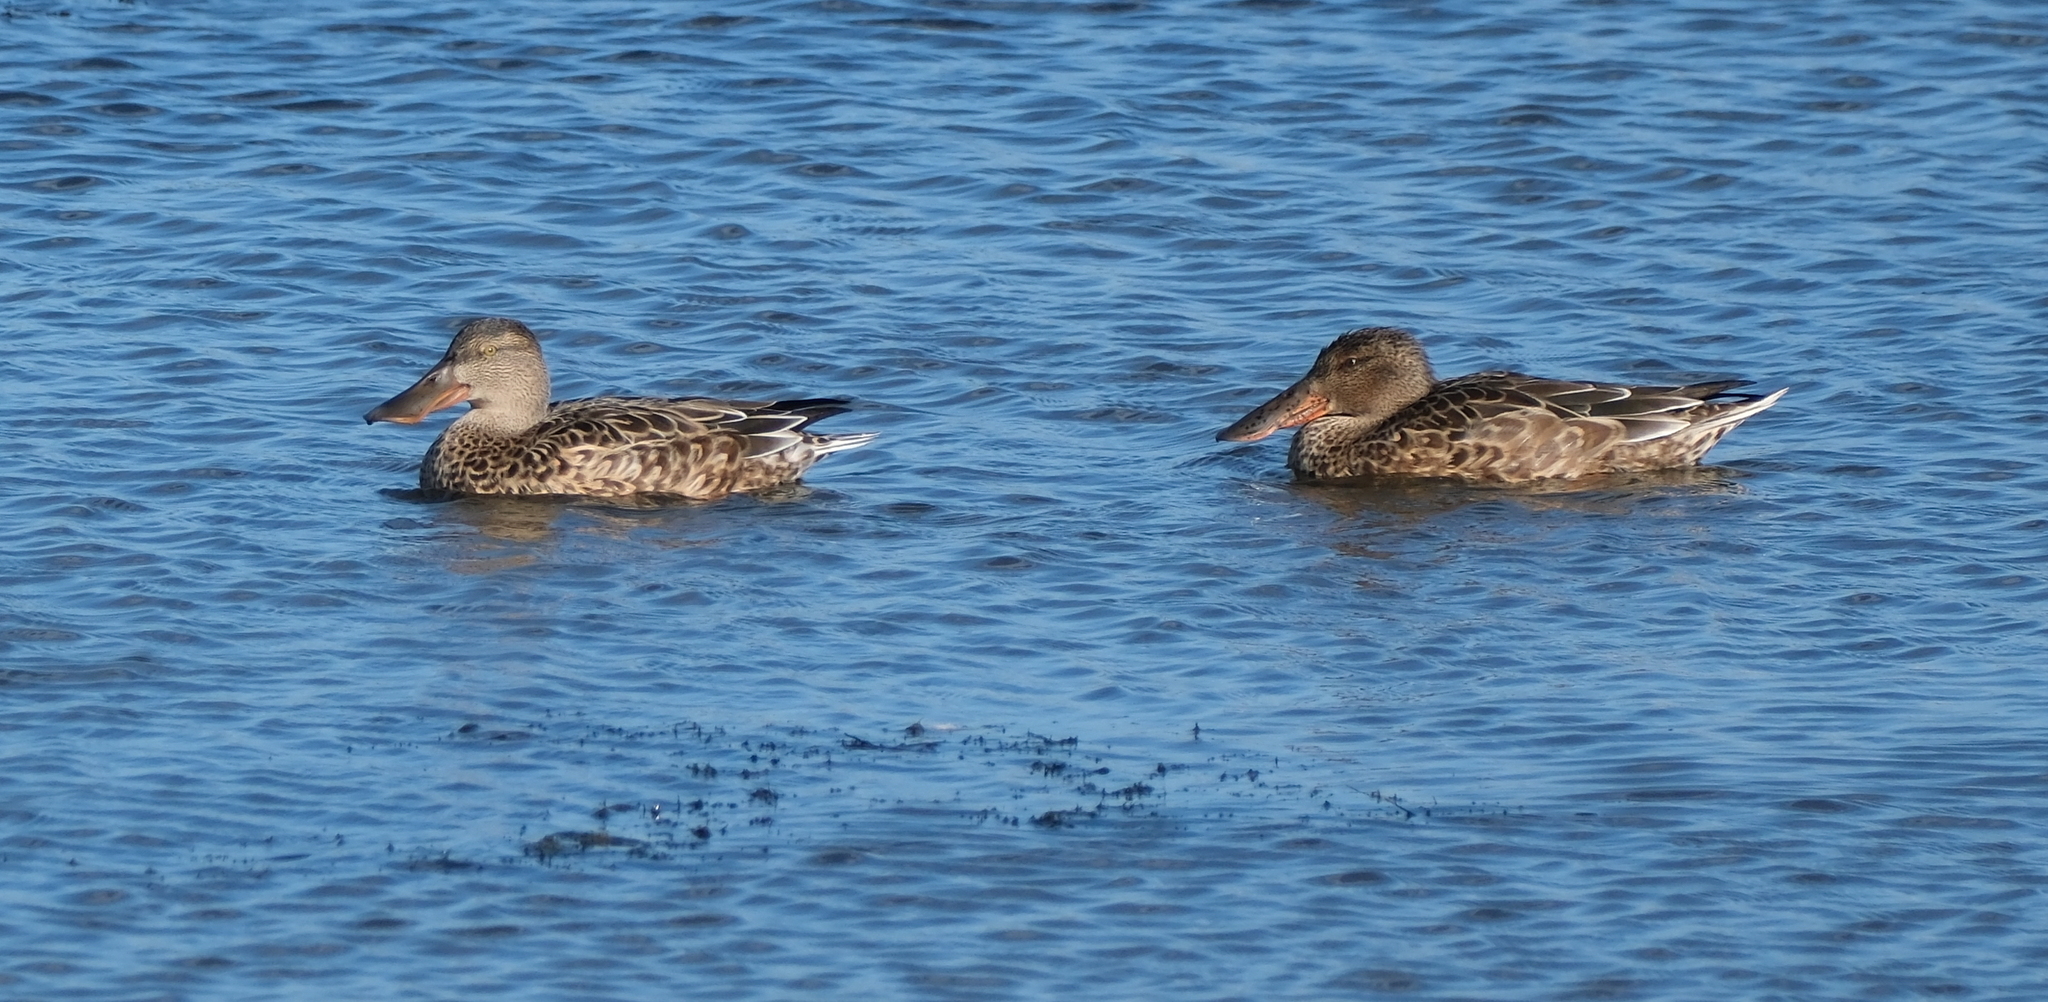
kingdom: Animalia
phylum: Chordata
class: Aves
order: Anseriformes
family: Anatidae
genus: Spatula
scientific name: Spatula clypeata
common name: Northern shoveler
